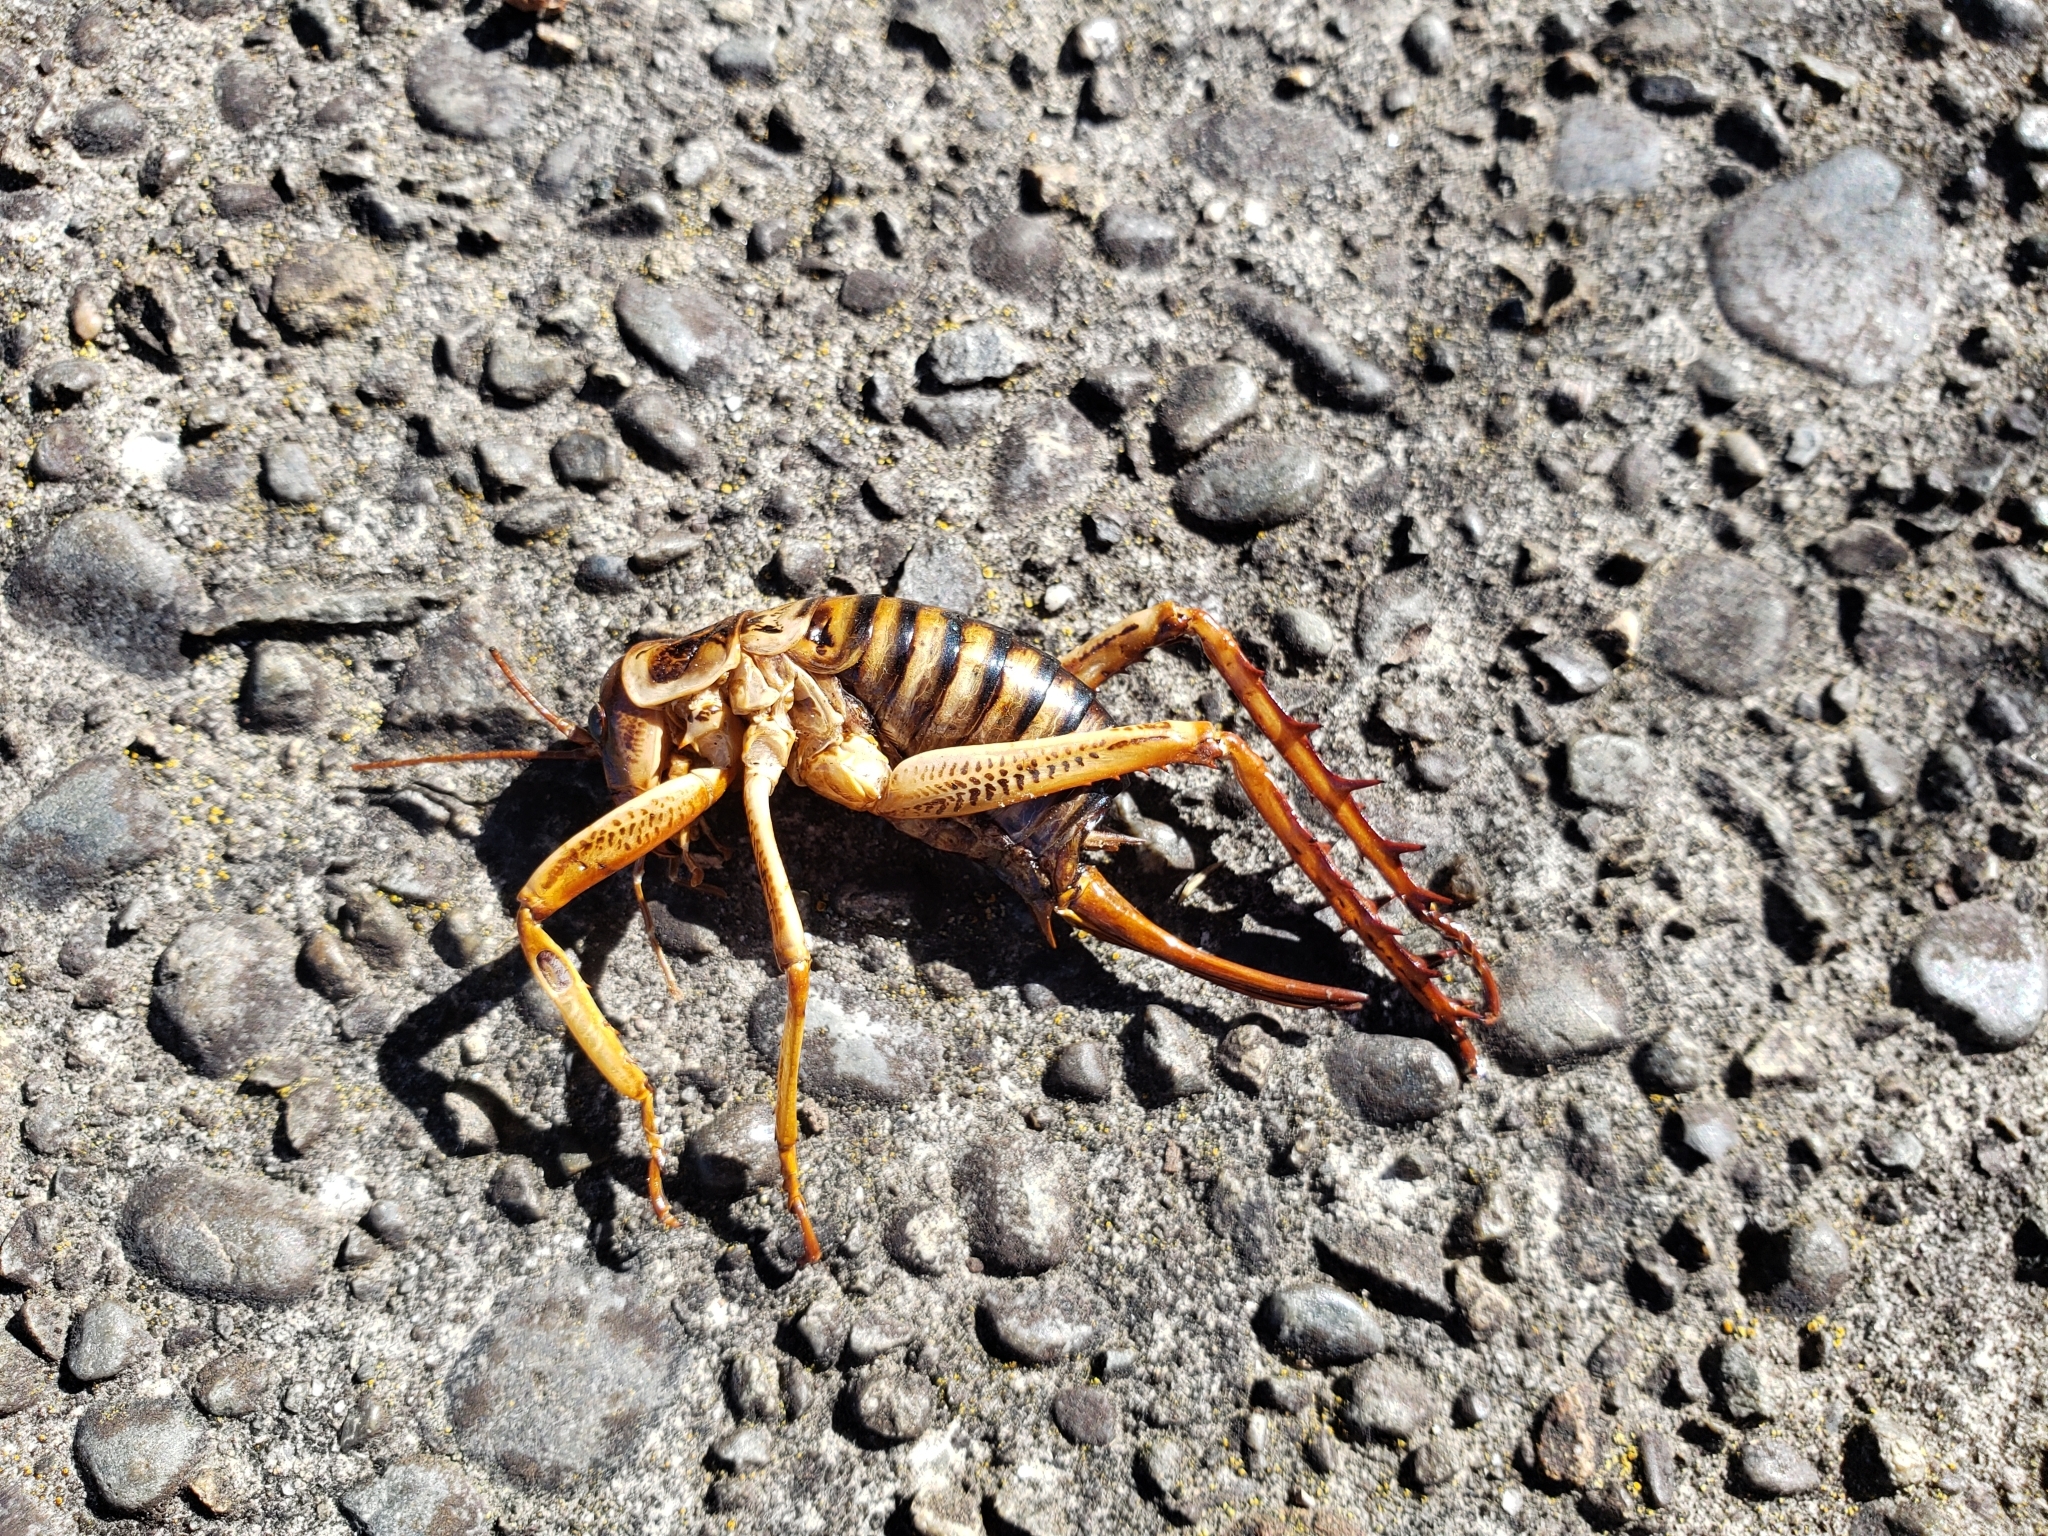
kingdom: Animalia
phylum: Arthropoda
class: Insecta
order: Orthoptera
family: Anostostomatidae
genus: Hemideina
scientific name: Hemideina crassidens
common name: Wellington tree weta
